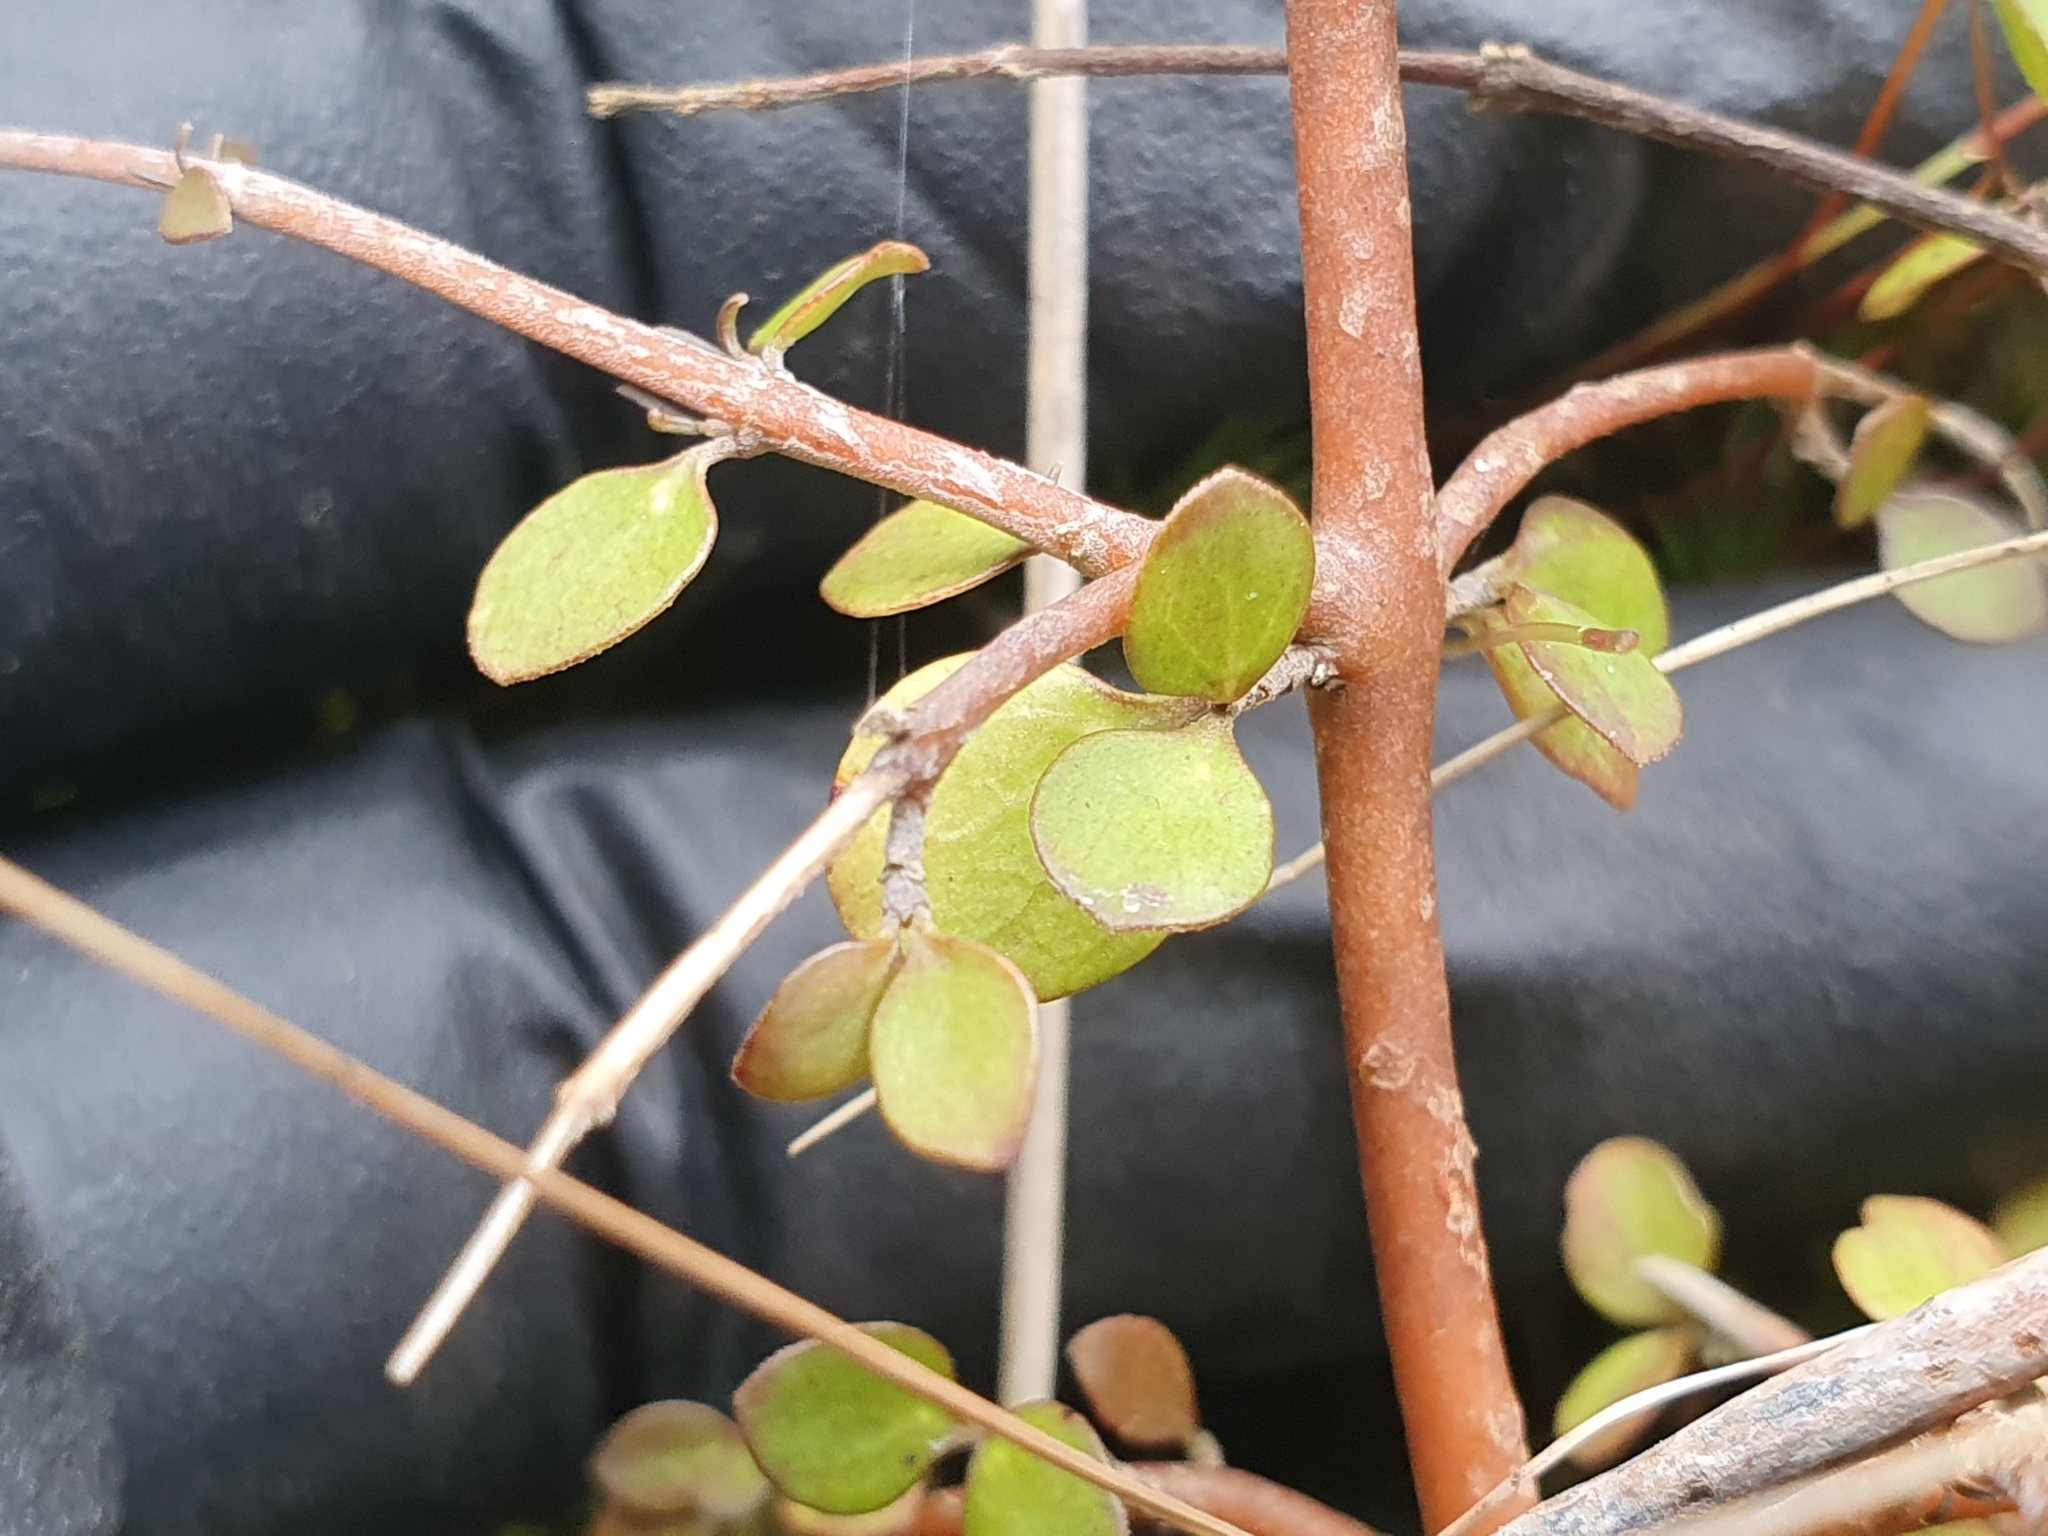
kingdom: Plantae
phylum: Tracheophyta
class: Magnoliopsida
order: Caryophyllales
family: Polygonaceae
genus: Muehlenbeckia
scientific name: Muehlenbeckia complexa
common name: Wireplant
